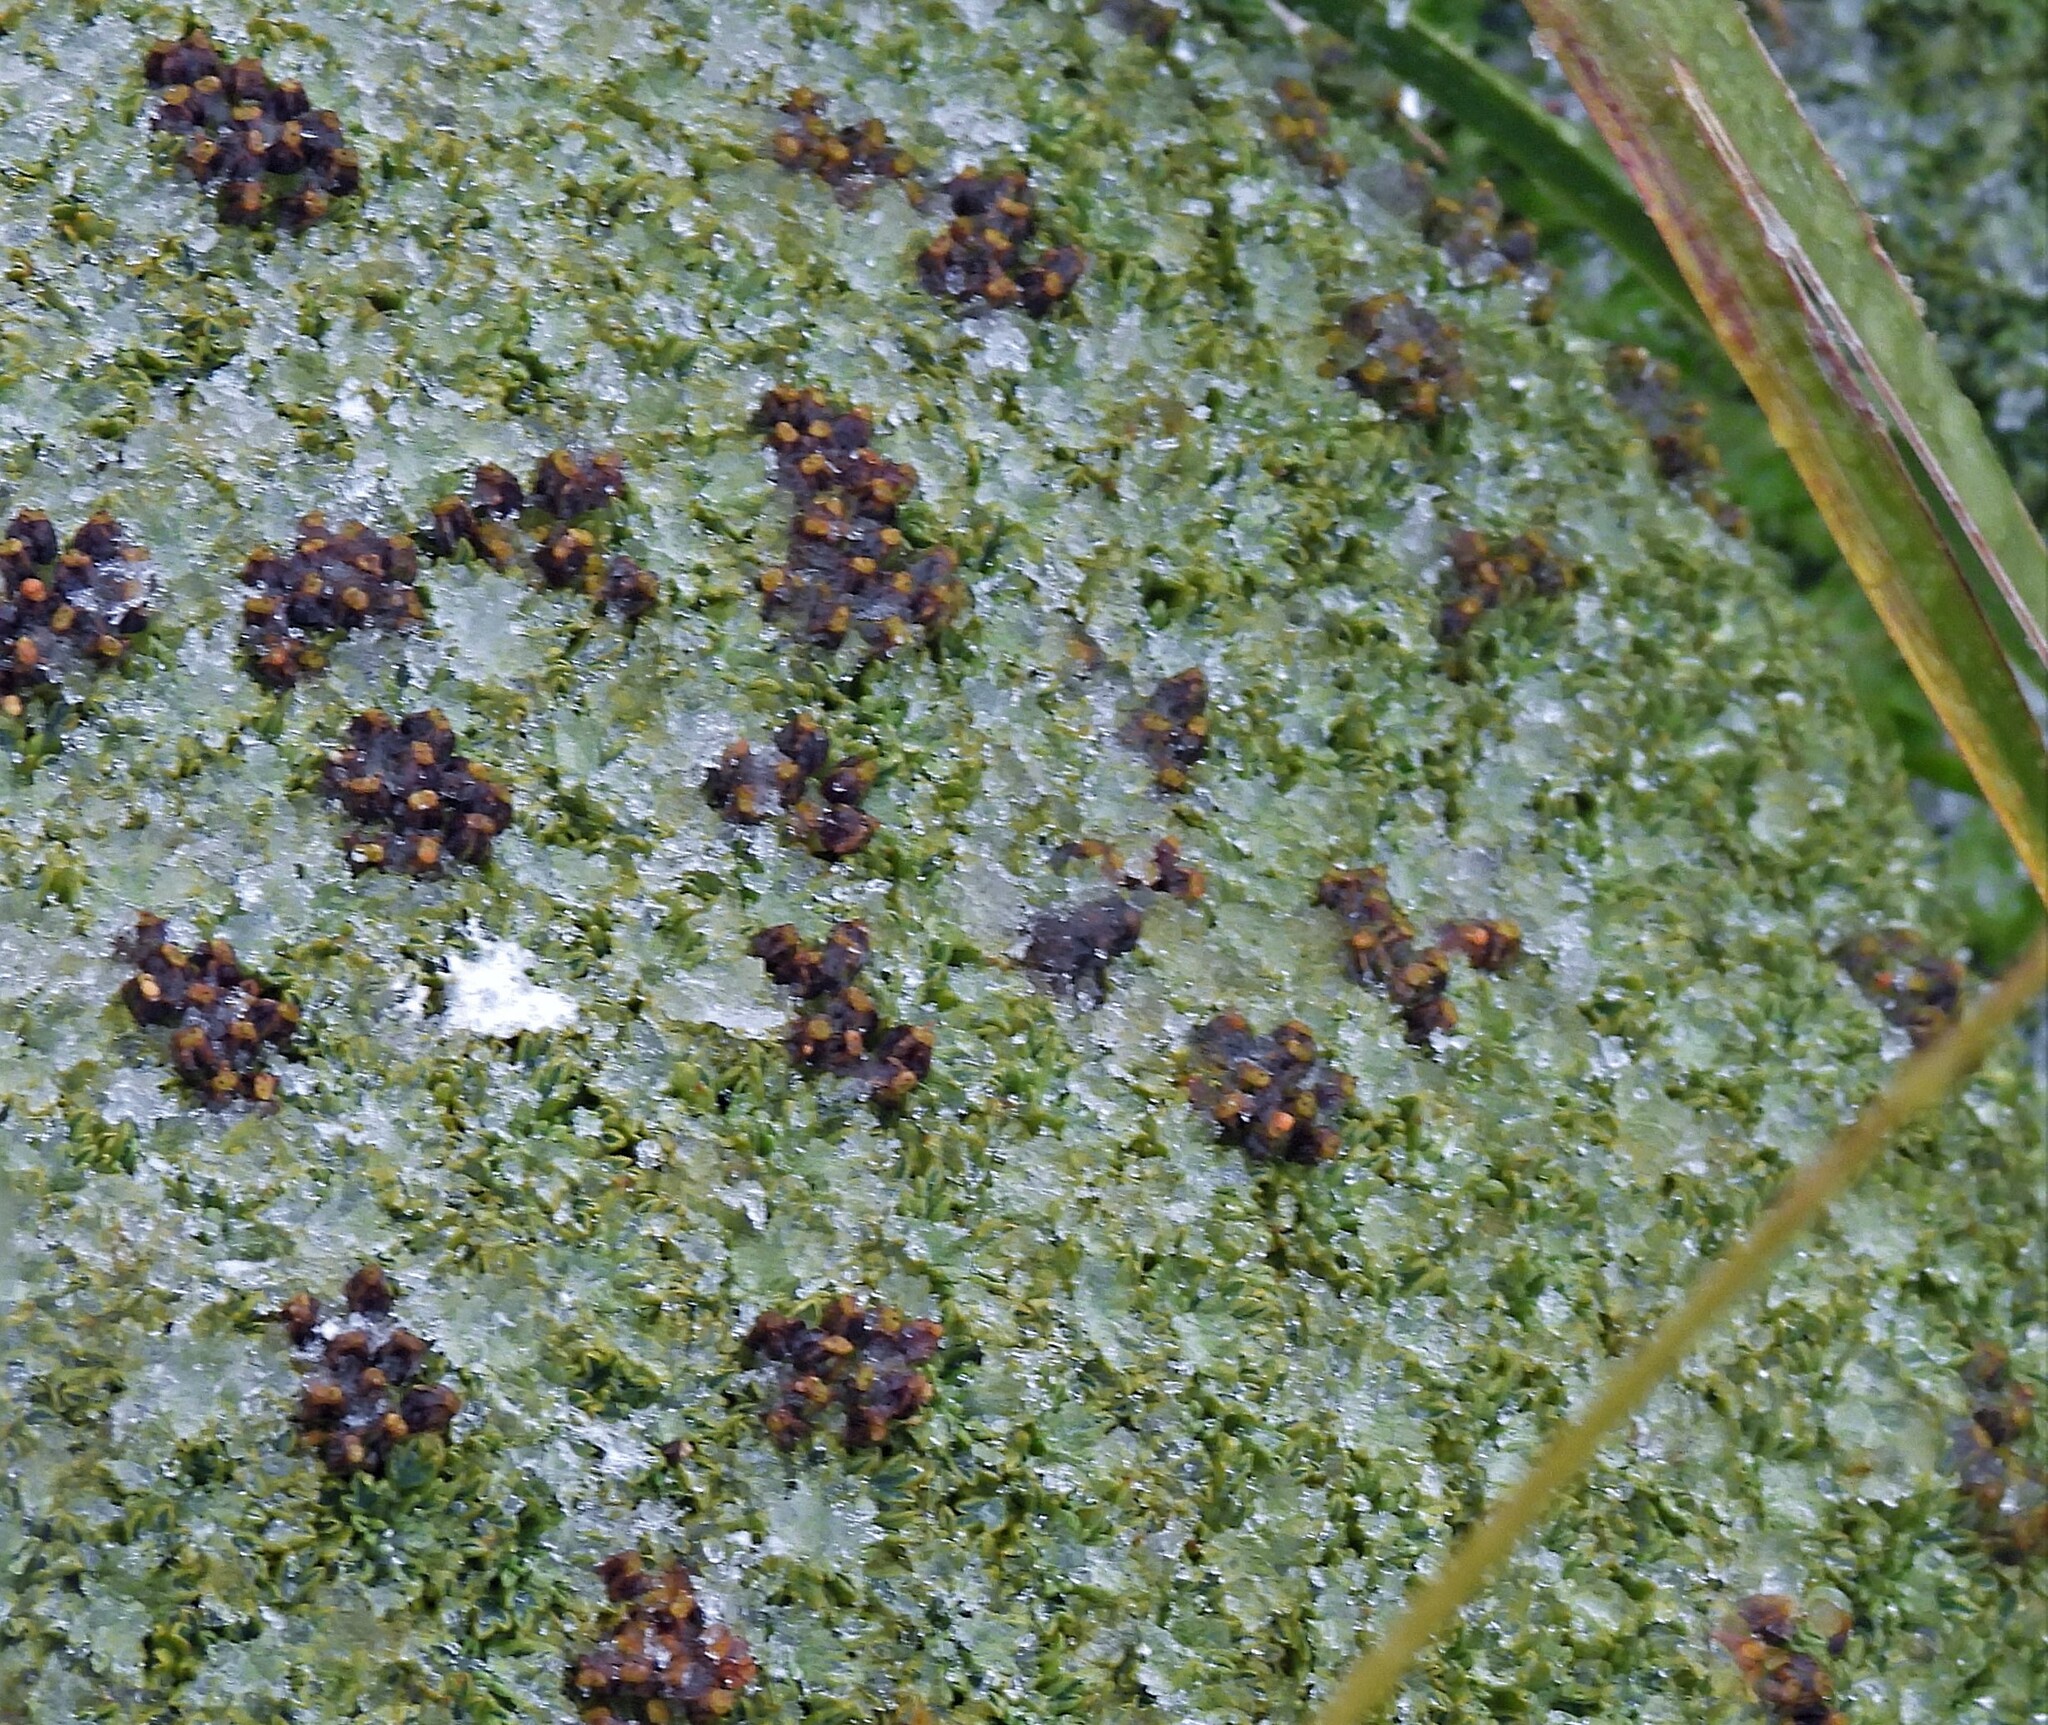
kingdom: Plantae
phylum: Tracheophyta
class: Magnoliopsida
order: Apiales
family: Apiaceae
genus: Bolax
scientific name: Bolax gummifera
